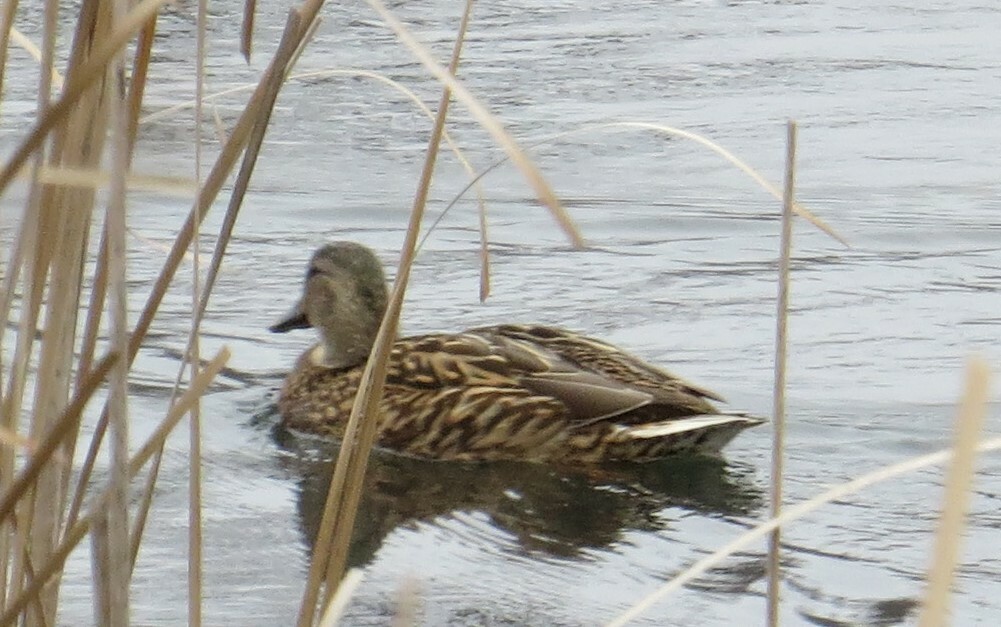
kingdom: Animalia
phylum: Chordata
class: Aves
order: Anseriformes
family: Anatidae
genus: Anas
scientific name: Anas platyrhynchos
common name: Mallard
